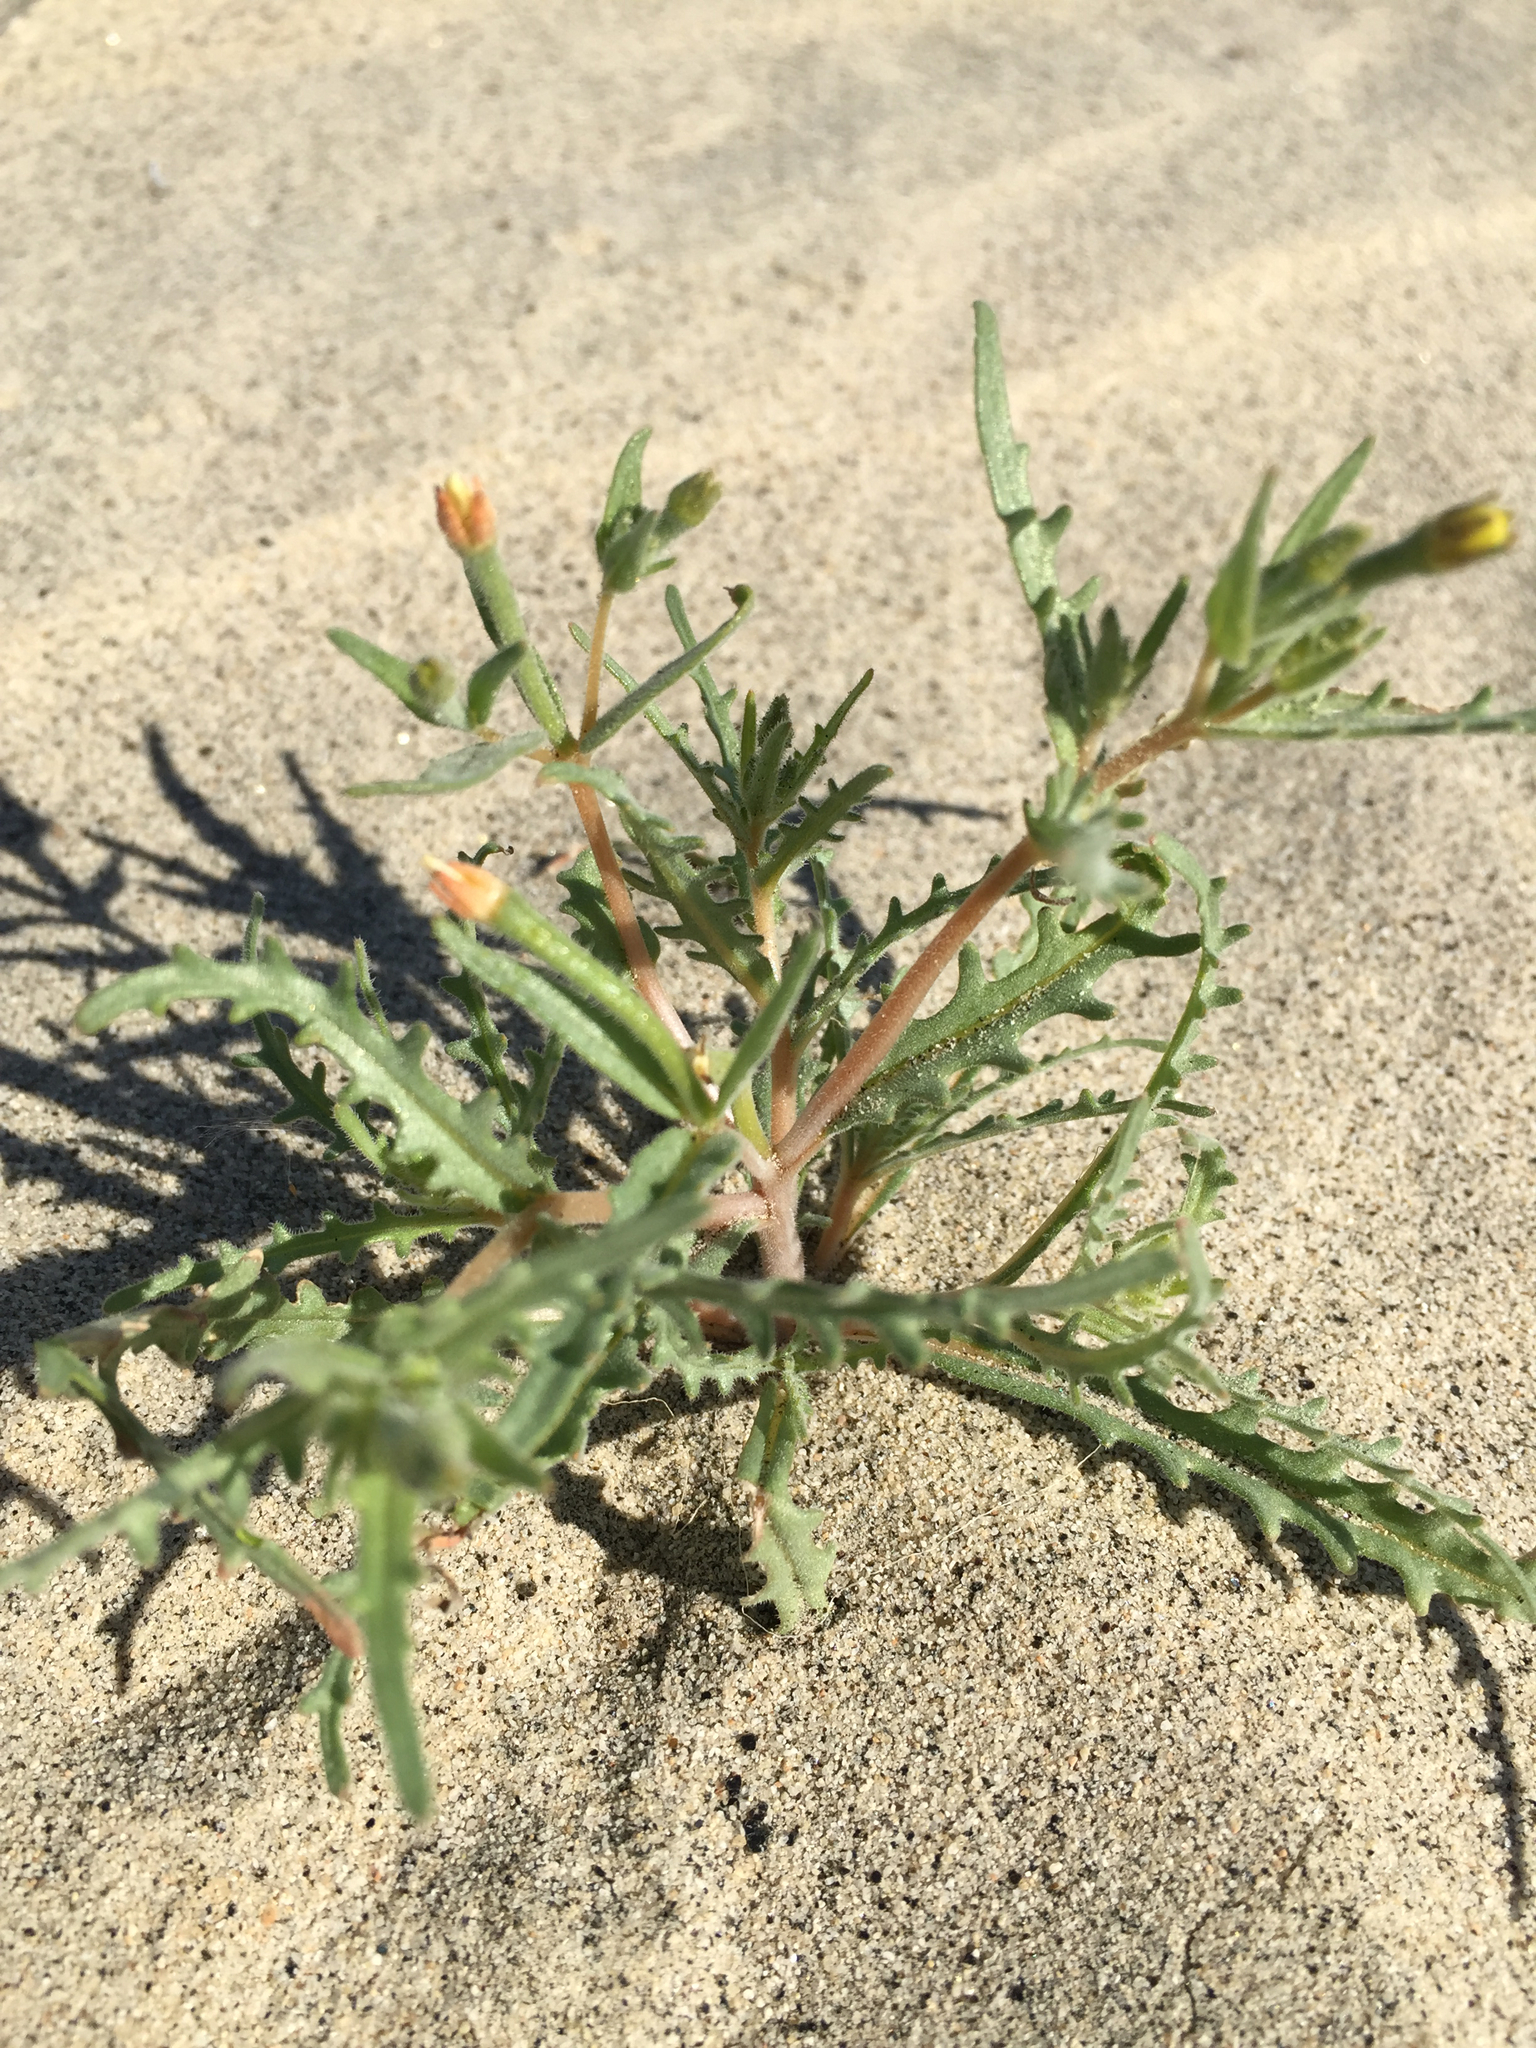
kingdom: Plantae
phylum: Tracheophyta
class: Magnoliopsida
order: Cornales
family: Loasaceae
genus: Mentzelia
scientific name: Mentzelia albicaulis
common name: White-stem blazingstar
